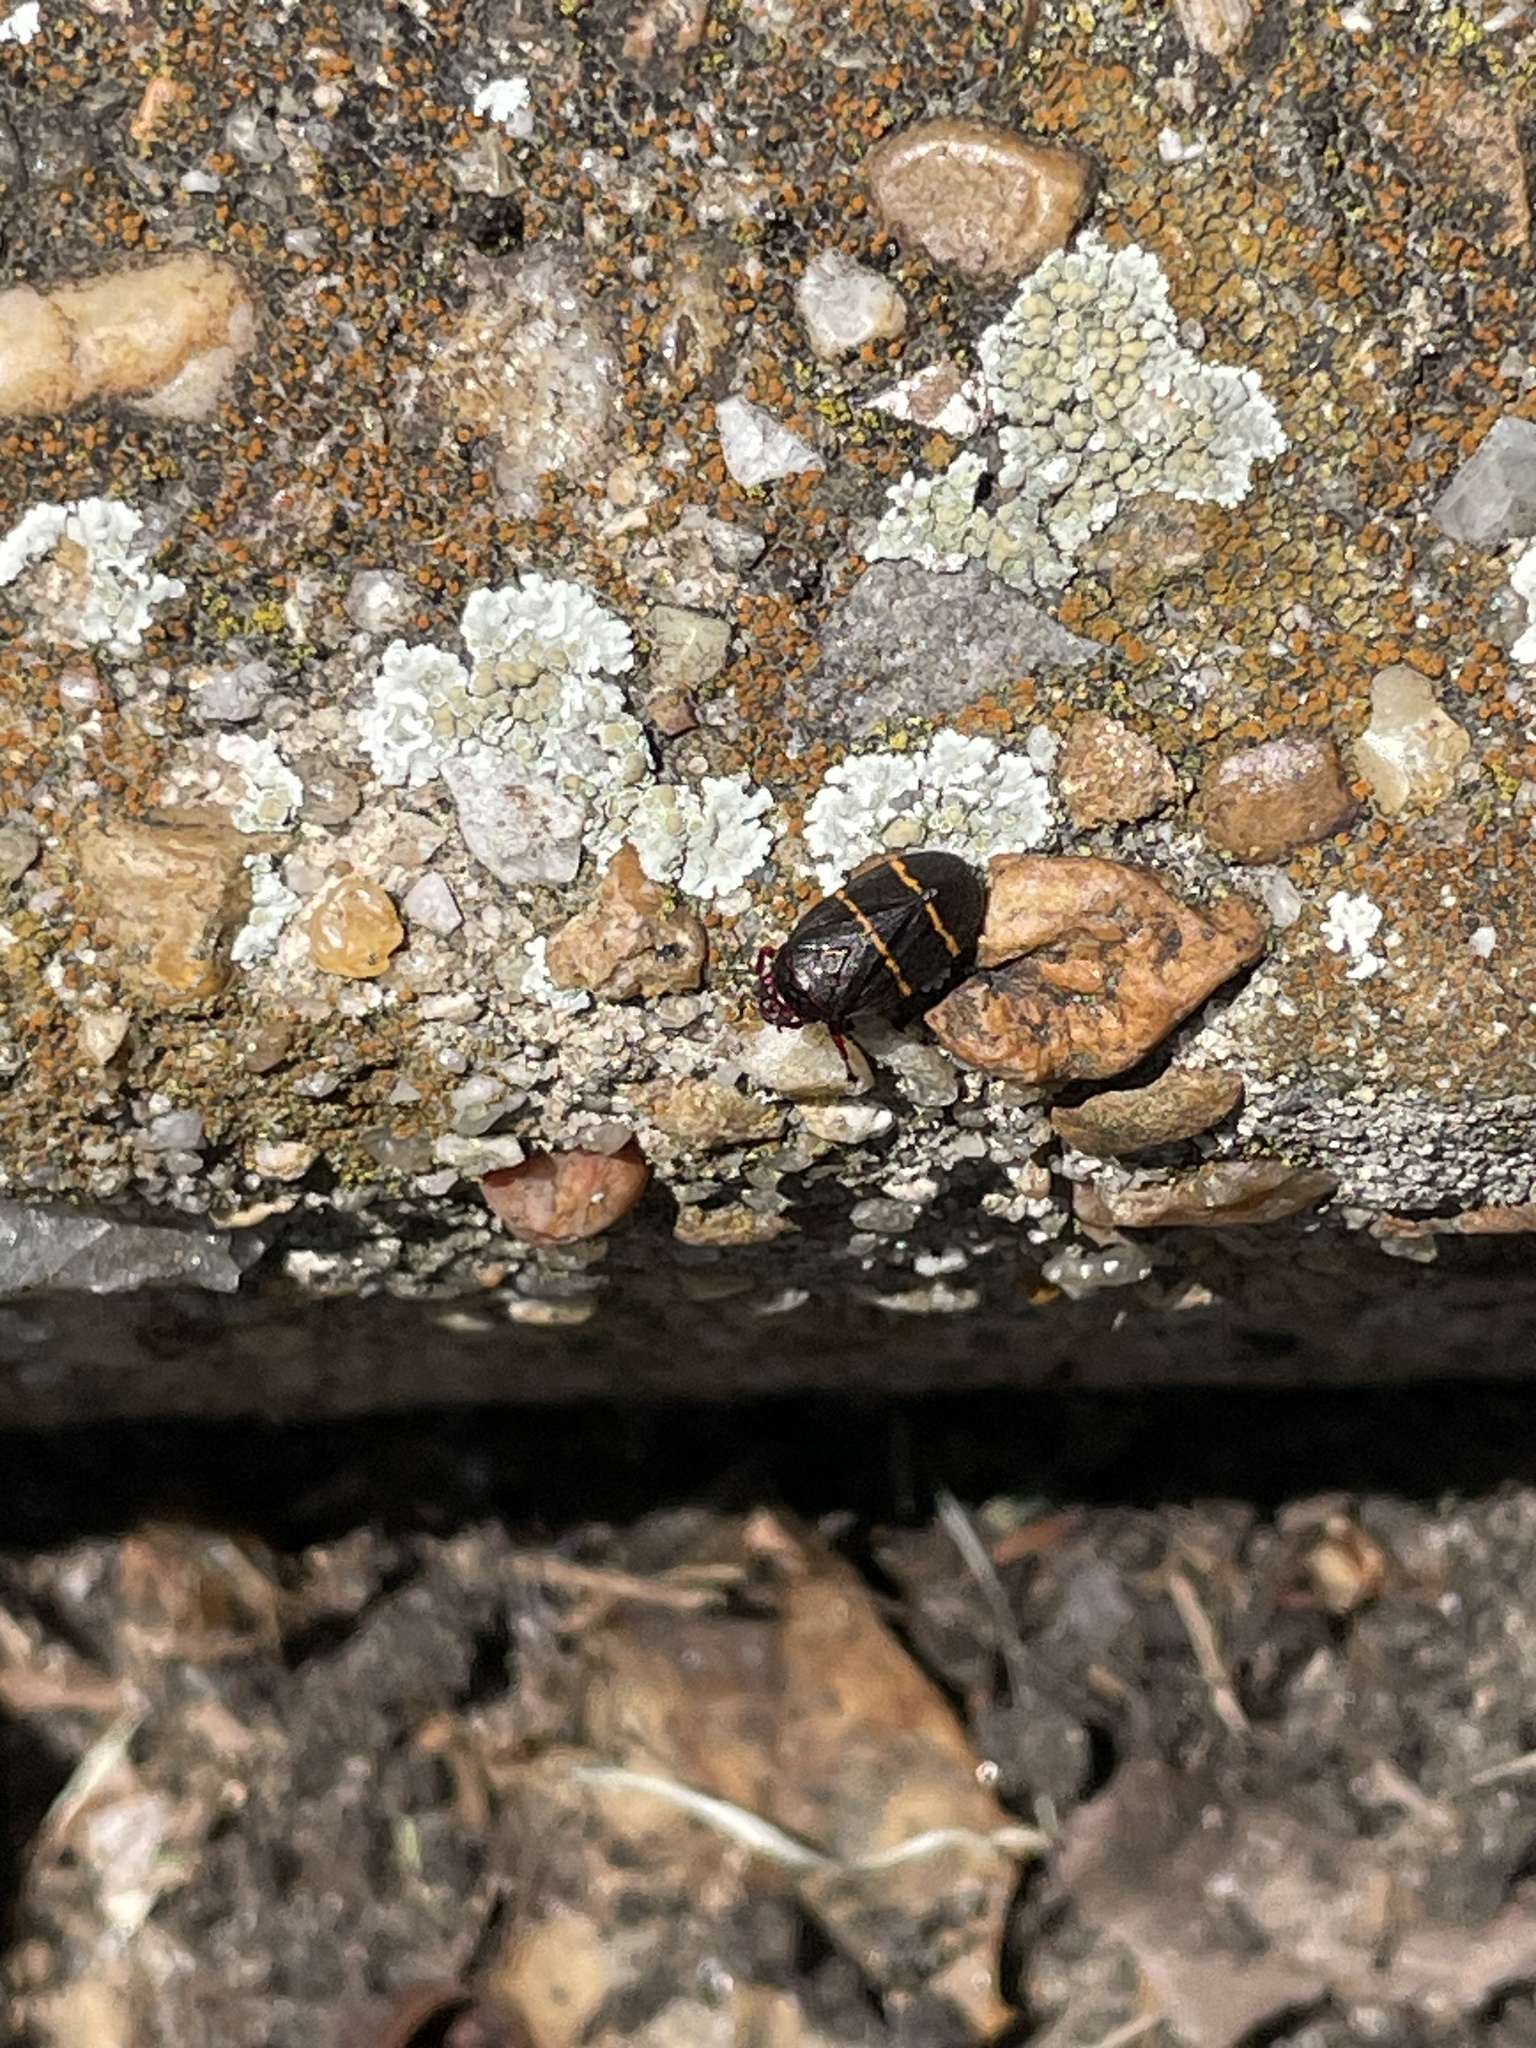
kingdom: Animalia
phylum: Arthropoda
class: Insecta
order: Hemiptera
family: Cercopidae
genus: Prosapia
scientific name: Prosapia bicincta
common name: Twolined spittlebug
